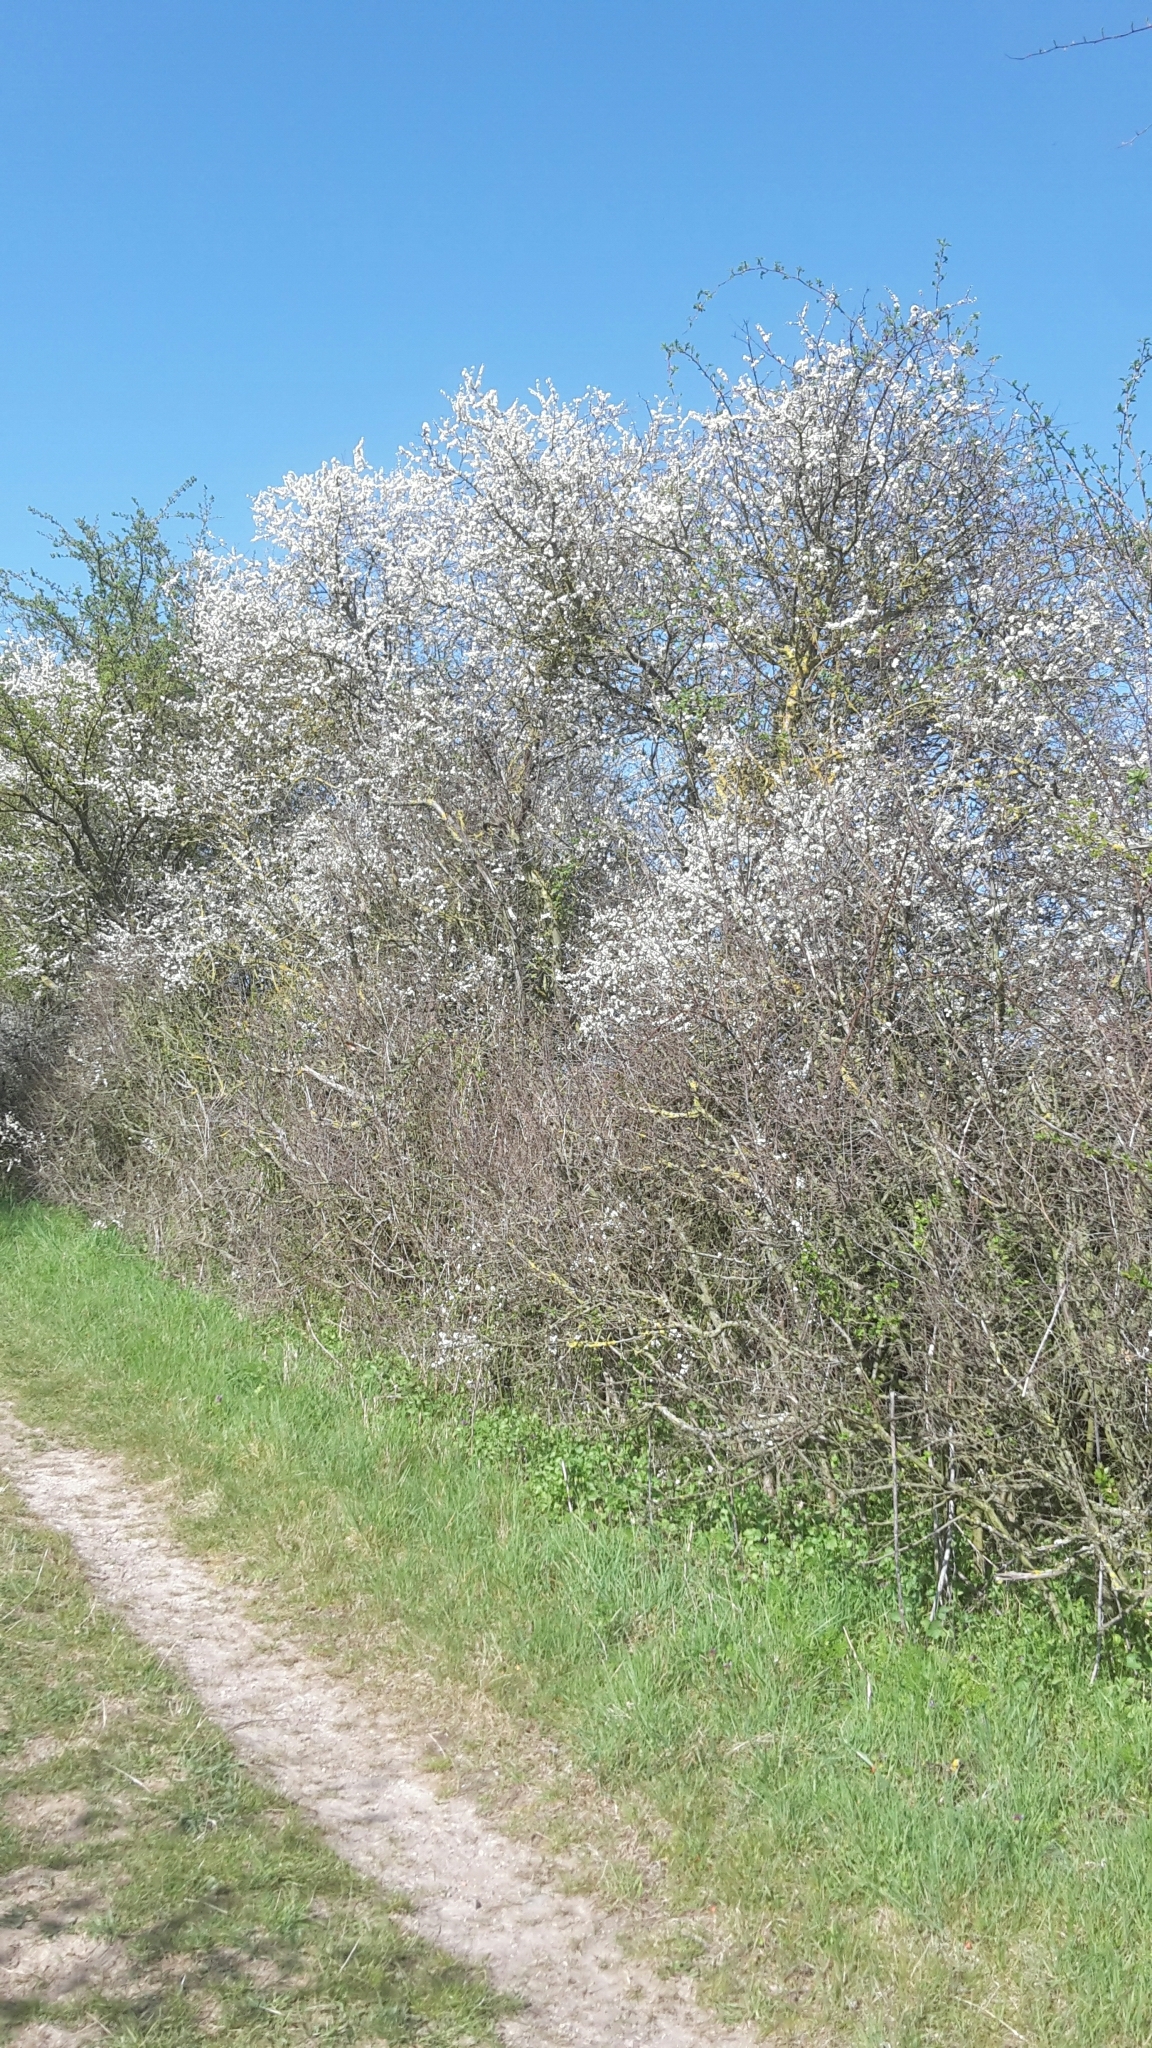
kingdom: Plantae
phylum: Tracheophyta
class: Magnoliopsida
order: Rosales
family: Rosaceae
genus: Prunus
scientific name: Prunus spinosa
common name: Blackthorn
